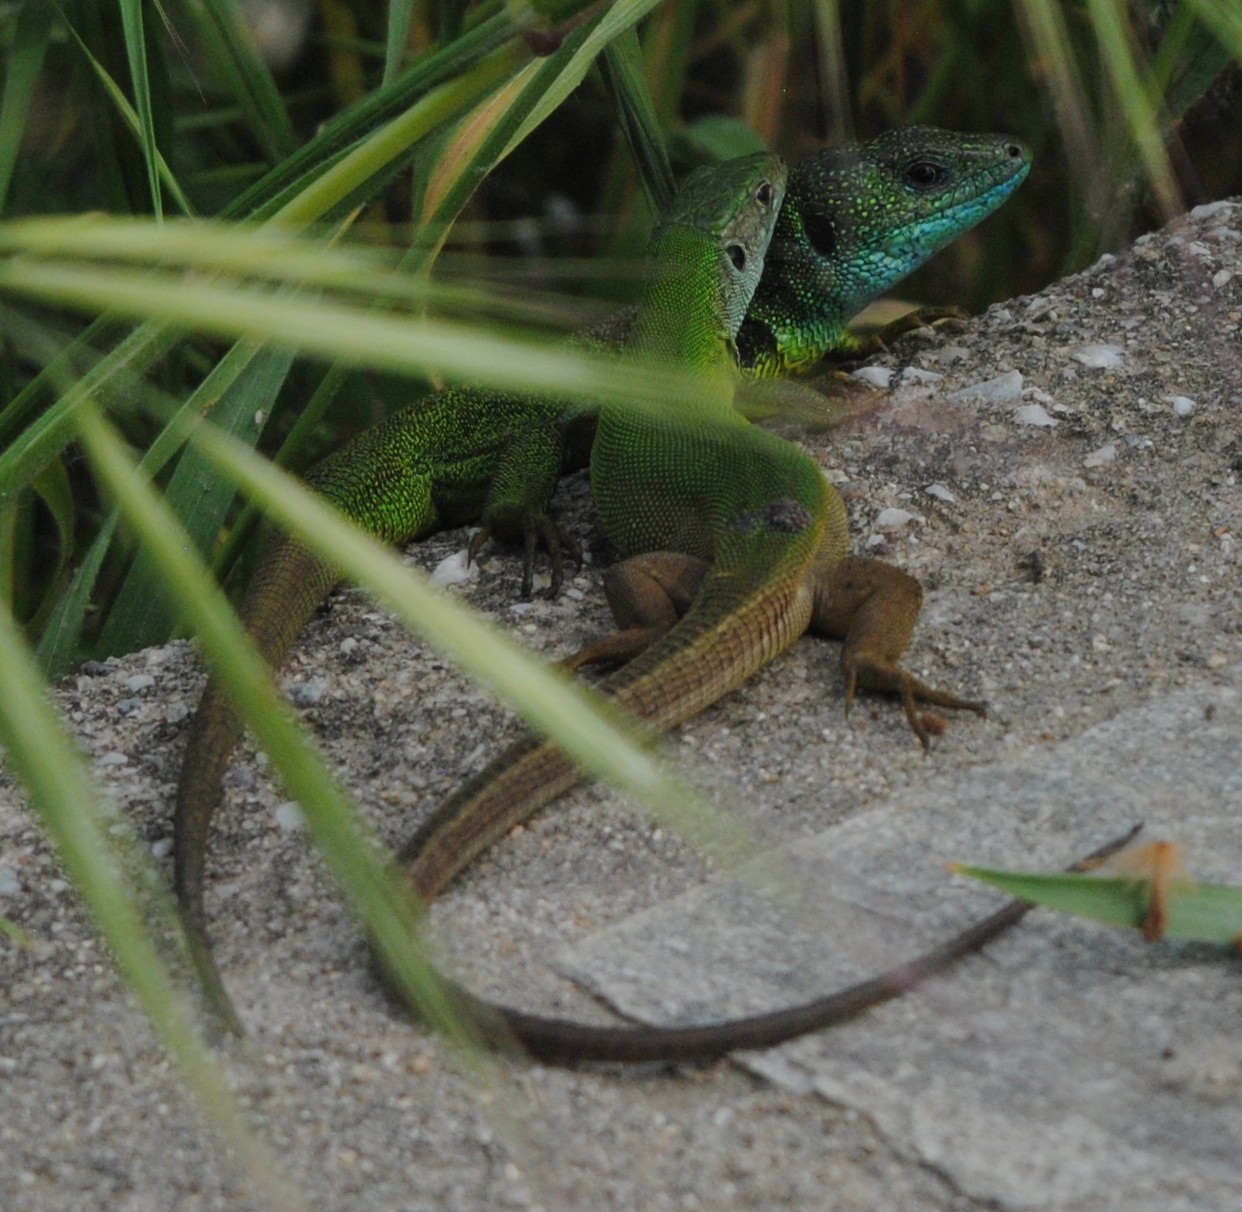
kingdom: Animalia
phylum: Chordata
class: Squamata
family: Lacertidae
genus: Lacerta
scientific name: Lacerta viridis
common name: European green lizard
